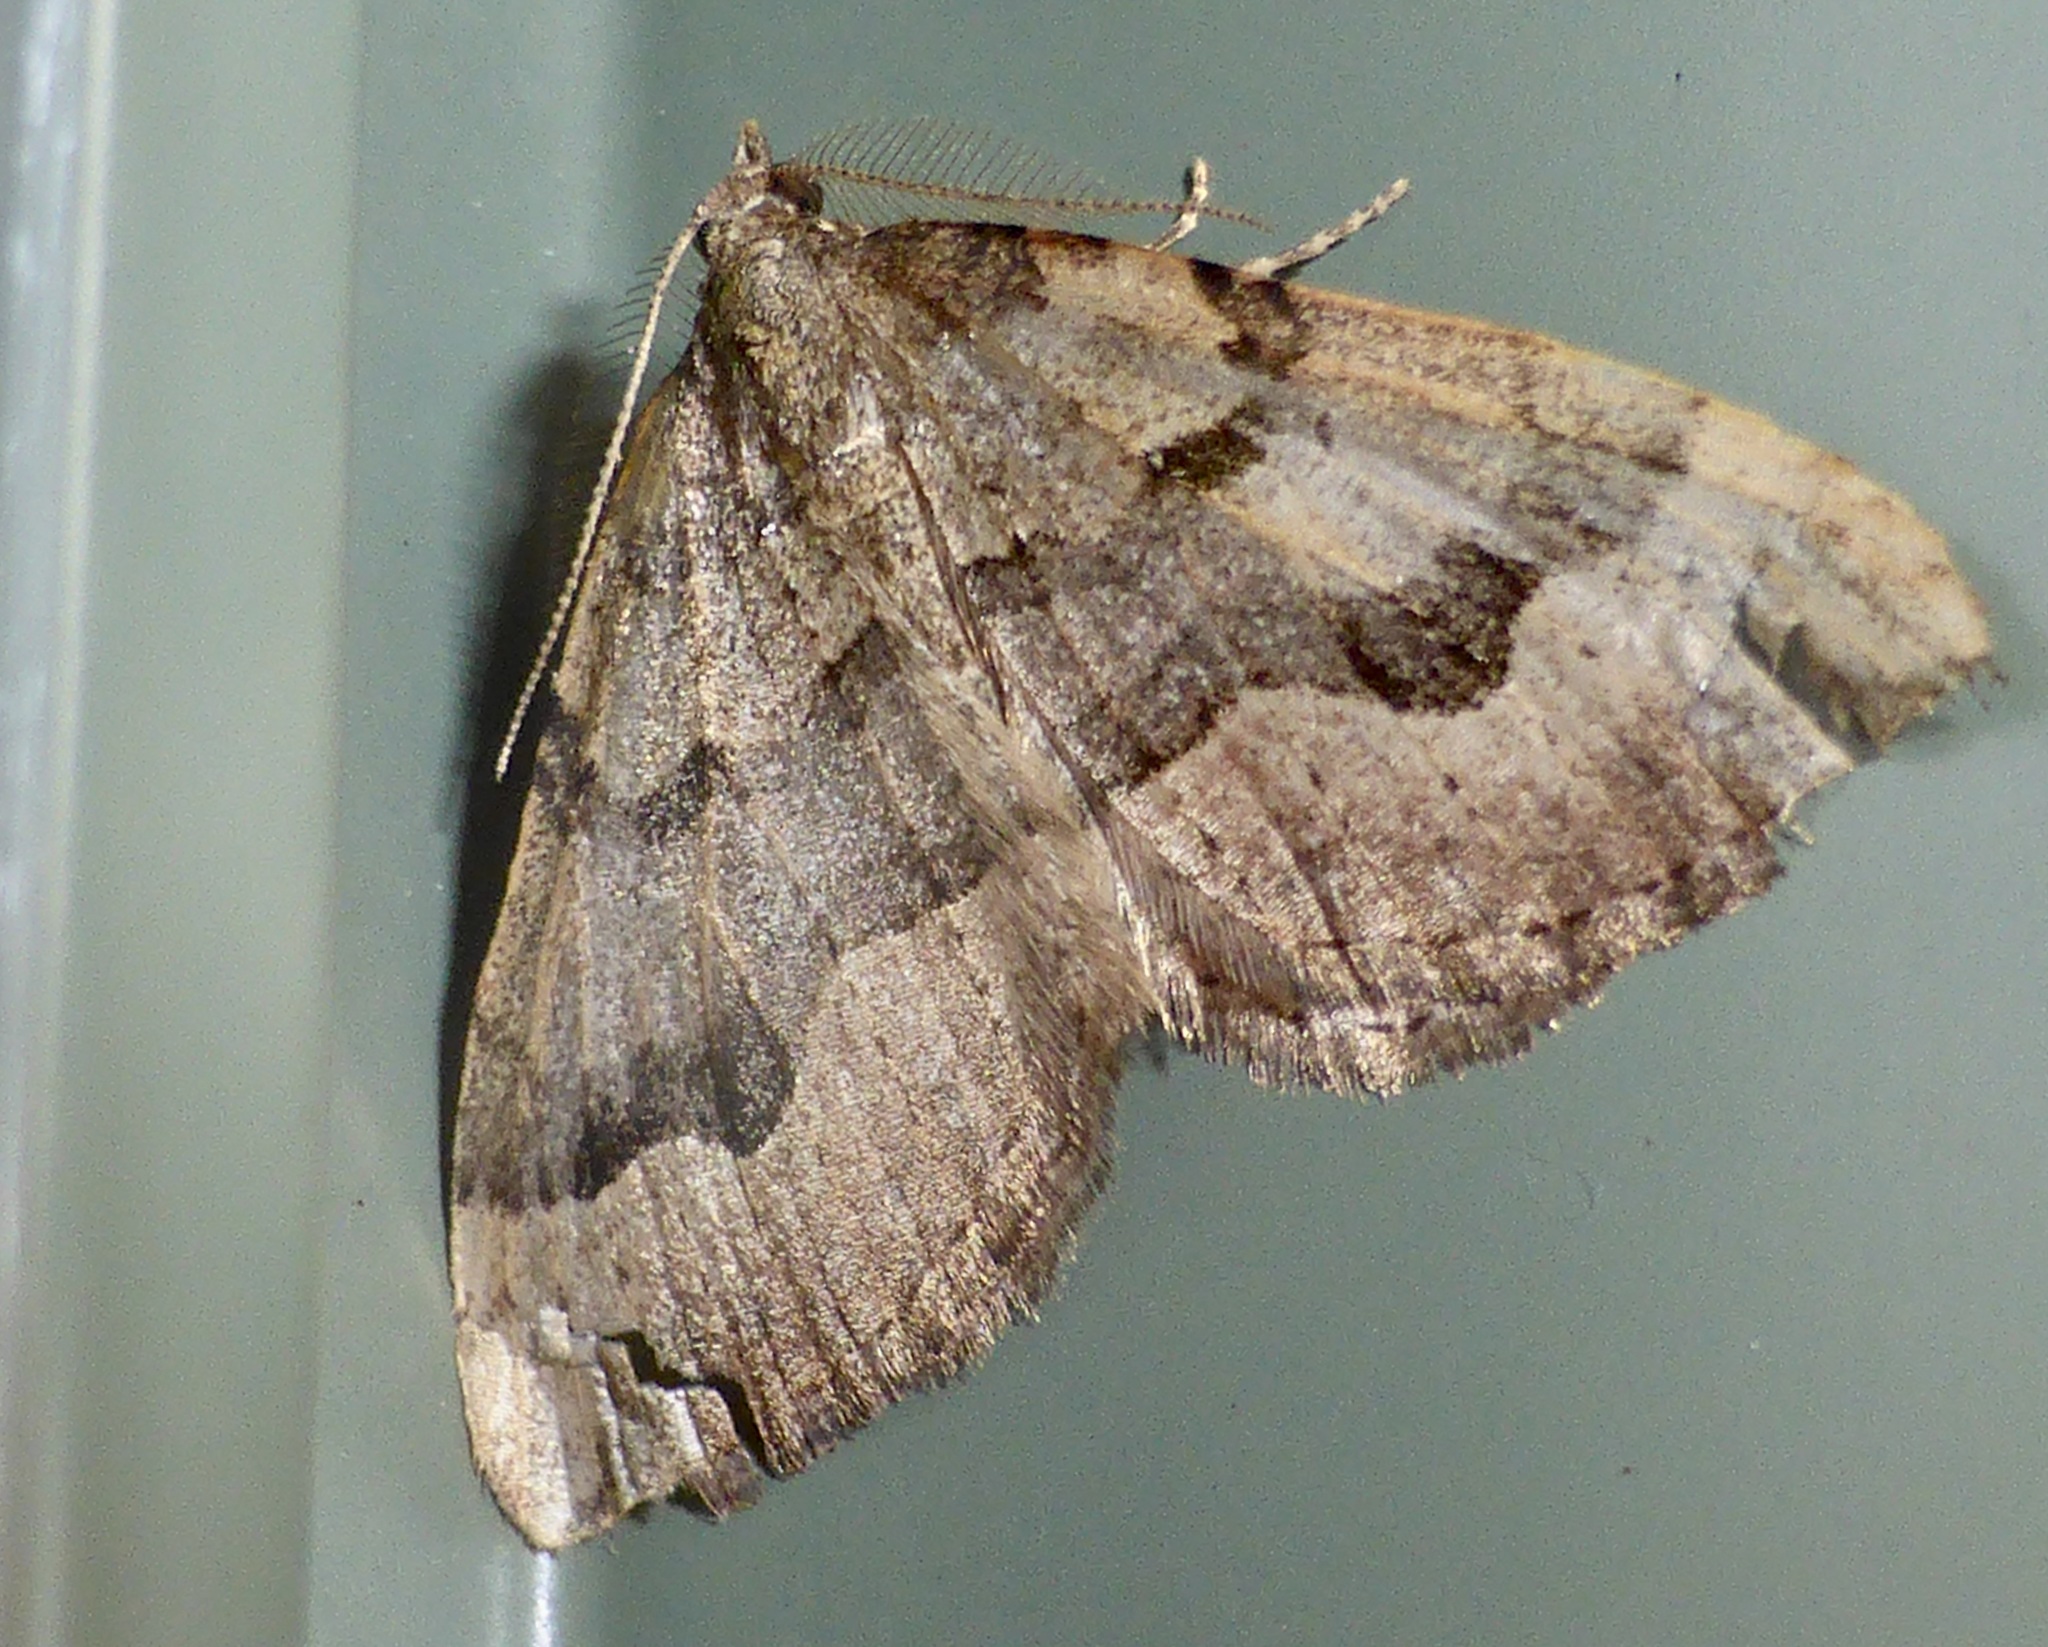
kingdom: Animalia
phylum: Arthropoda
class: Insecta
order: Lepidoptera
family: Geometridae
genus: Epyaxa
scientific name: Epyaxa rosearia
